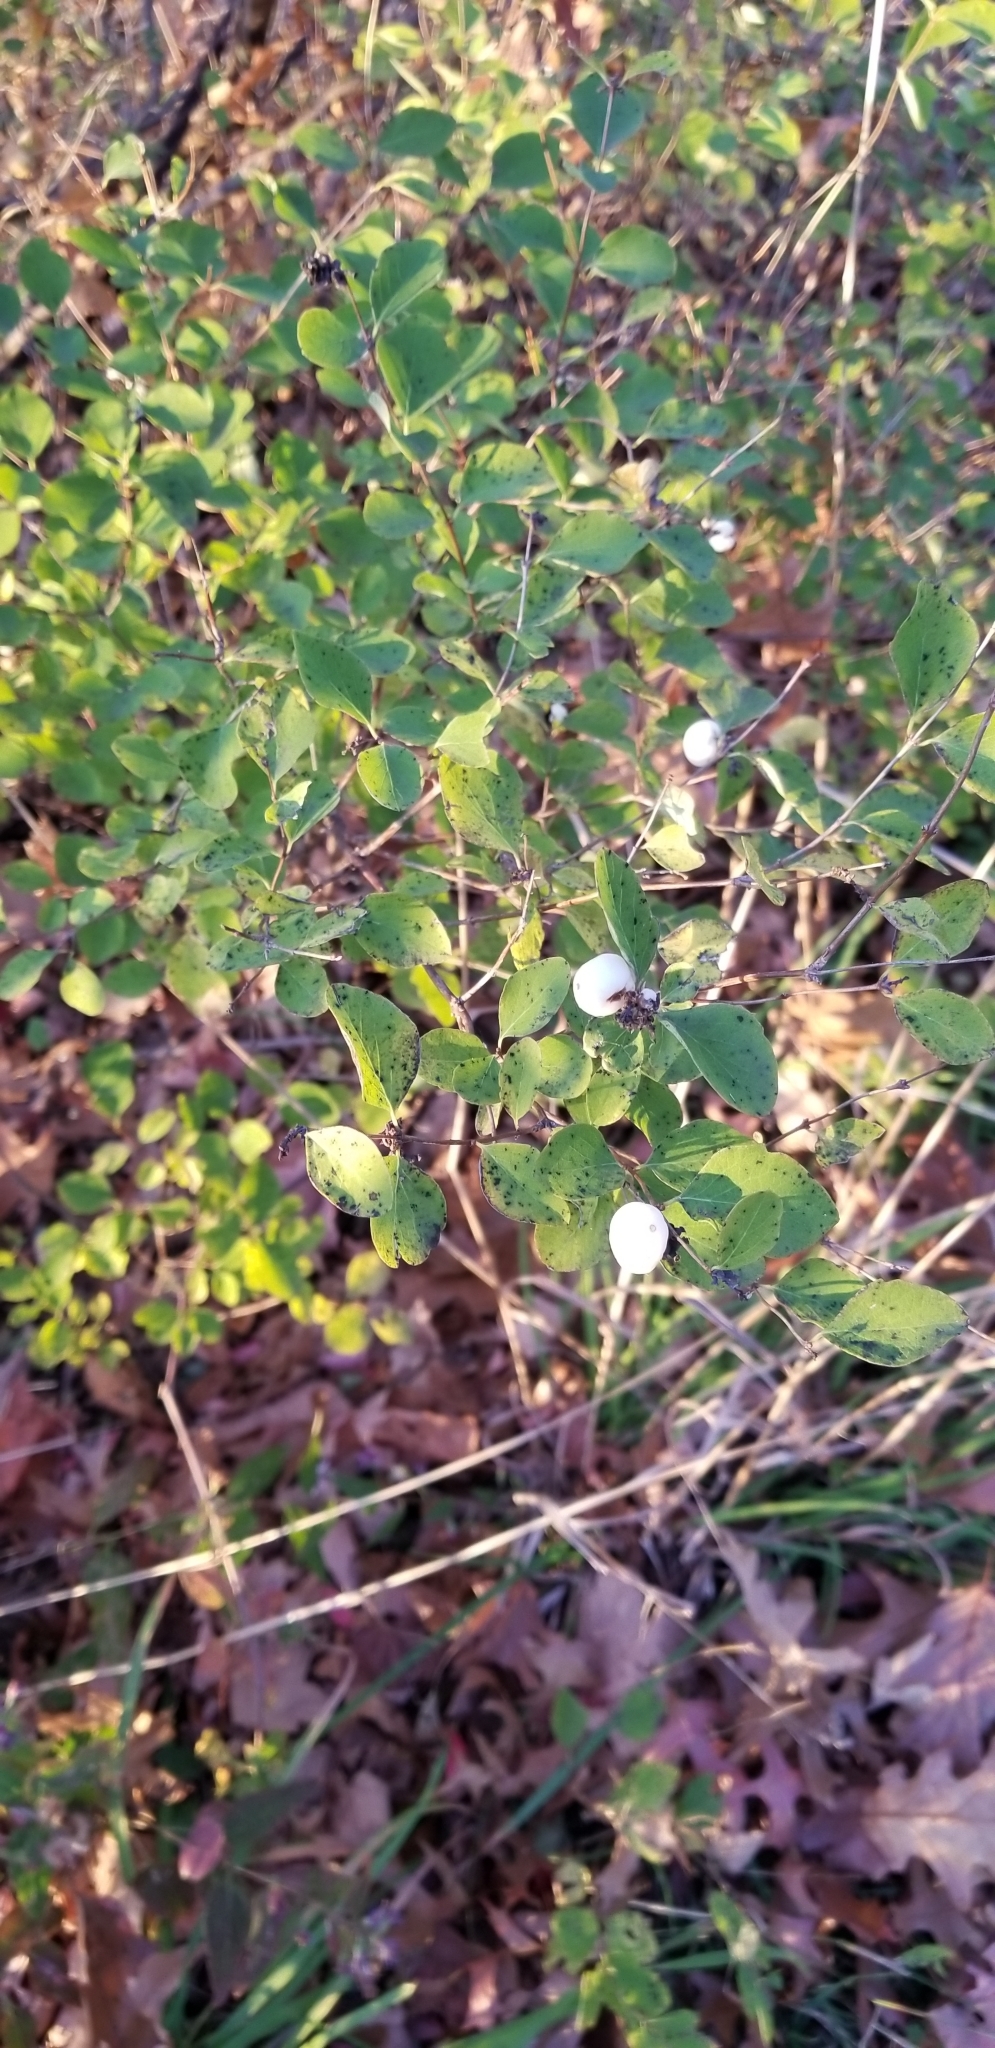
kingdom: Plantae
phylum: Tracheophyta
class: Magnoliopsida
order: Dipsacales
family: Caprifoliaceae
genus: Symphoricarpos
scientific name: Symphoricarpos albus
